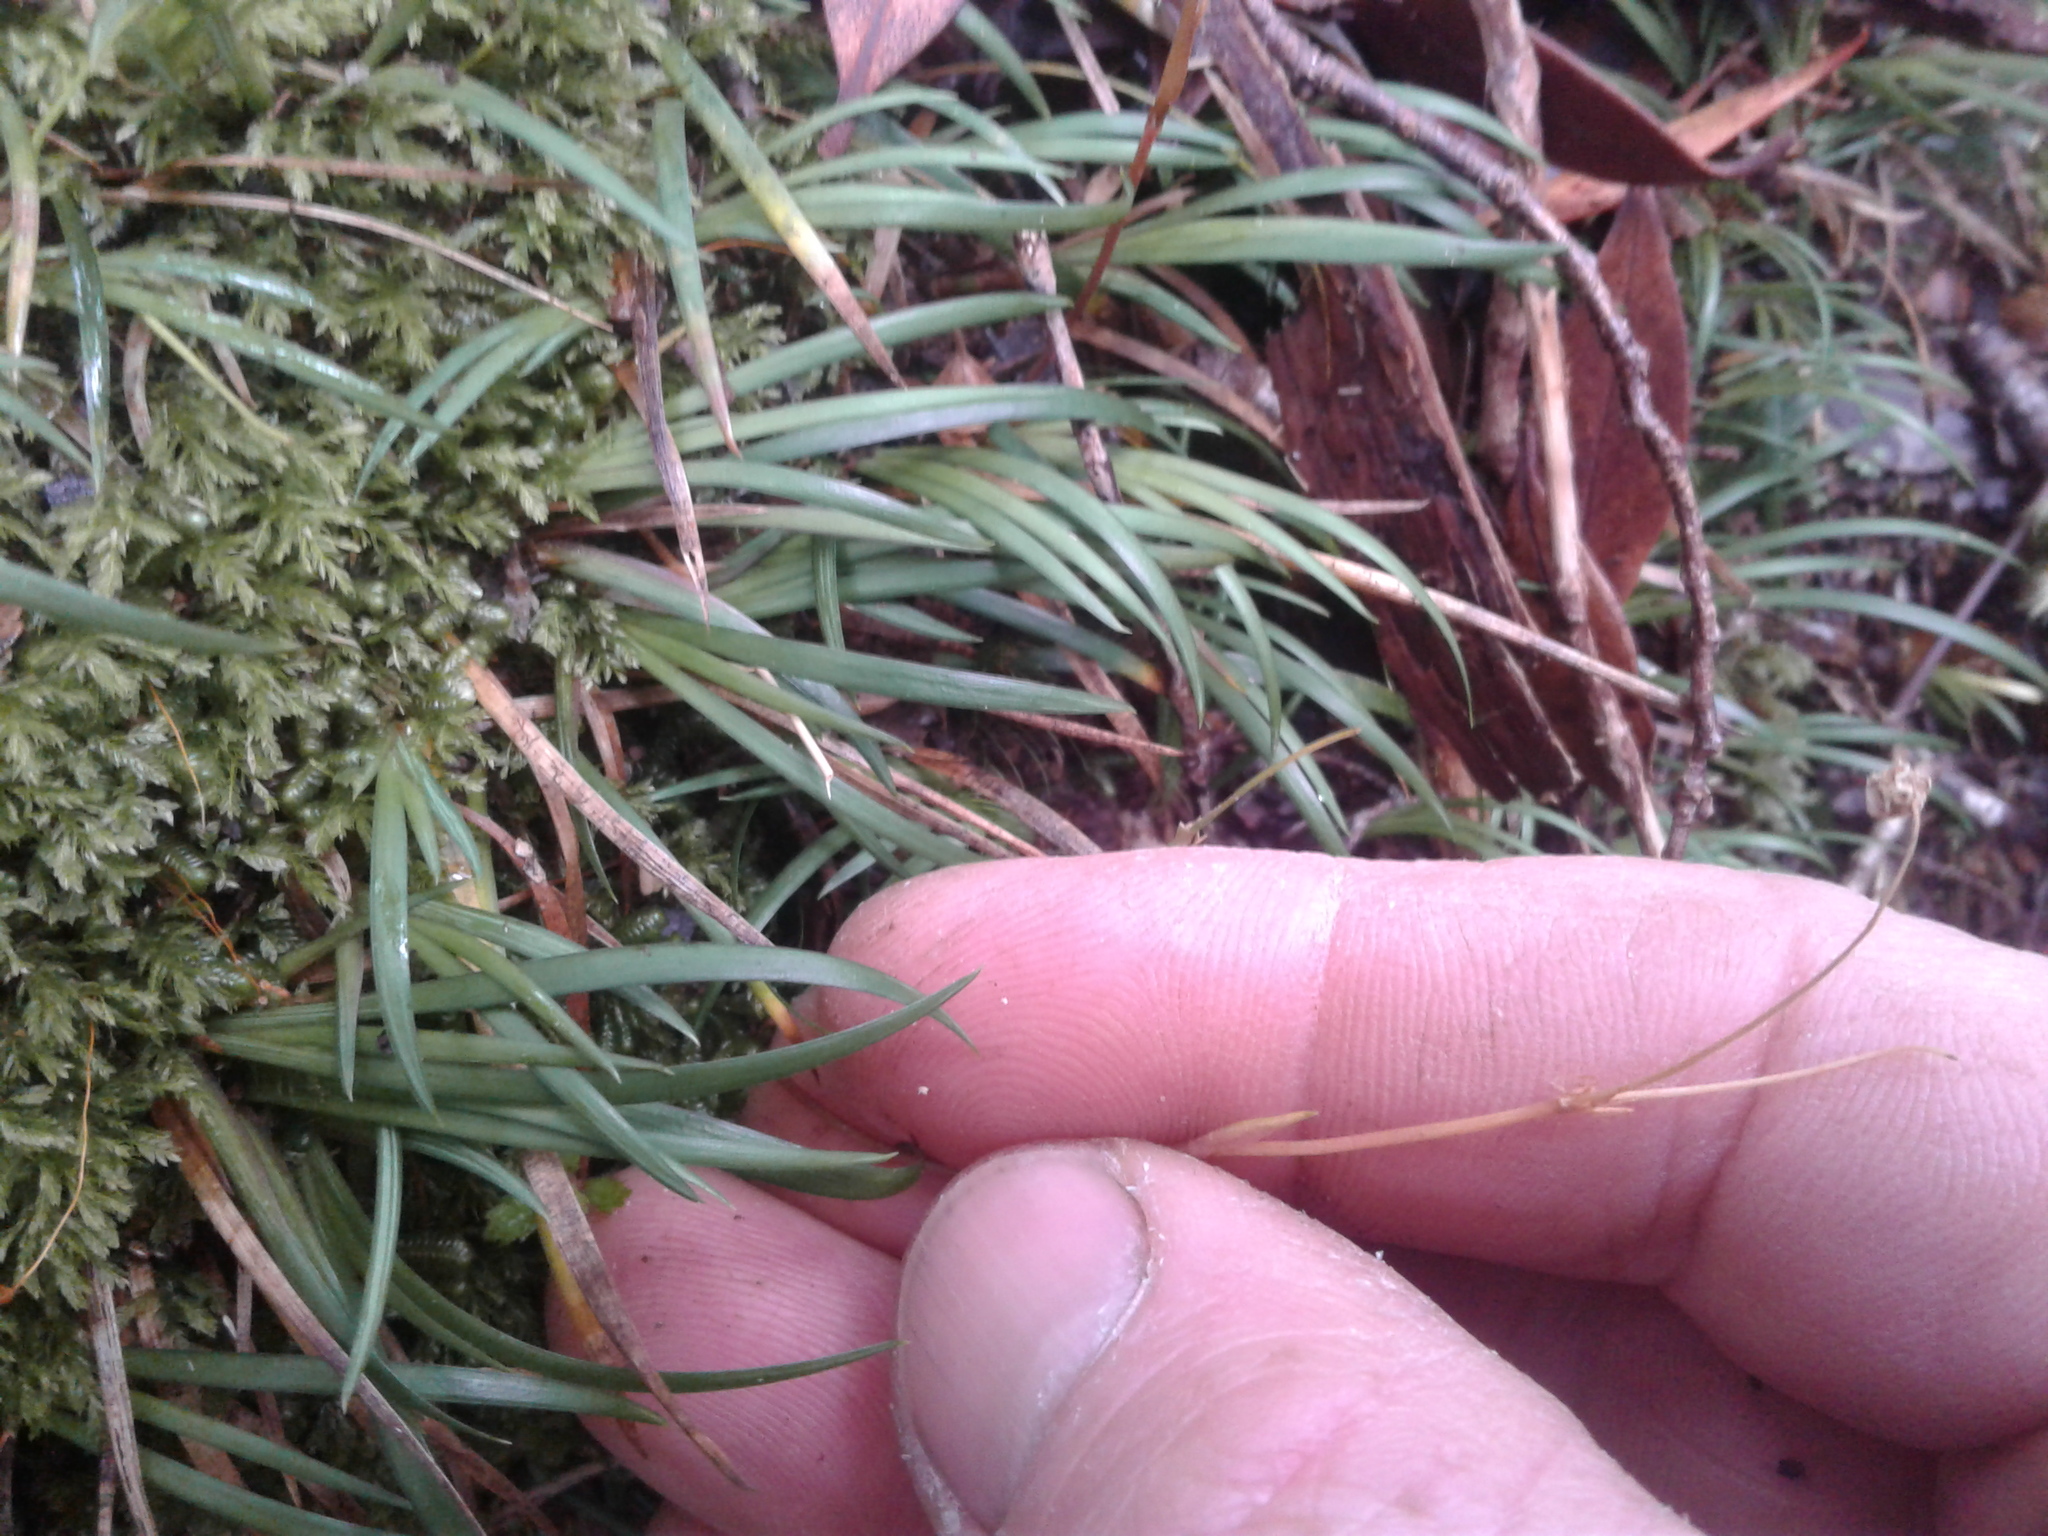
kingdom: Plantae
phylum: Tracheophyta
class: Liliopsida
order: Asparagales
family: Iridaceae
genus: Libertia
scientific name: Libertia micrantha
